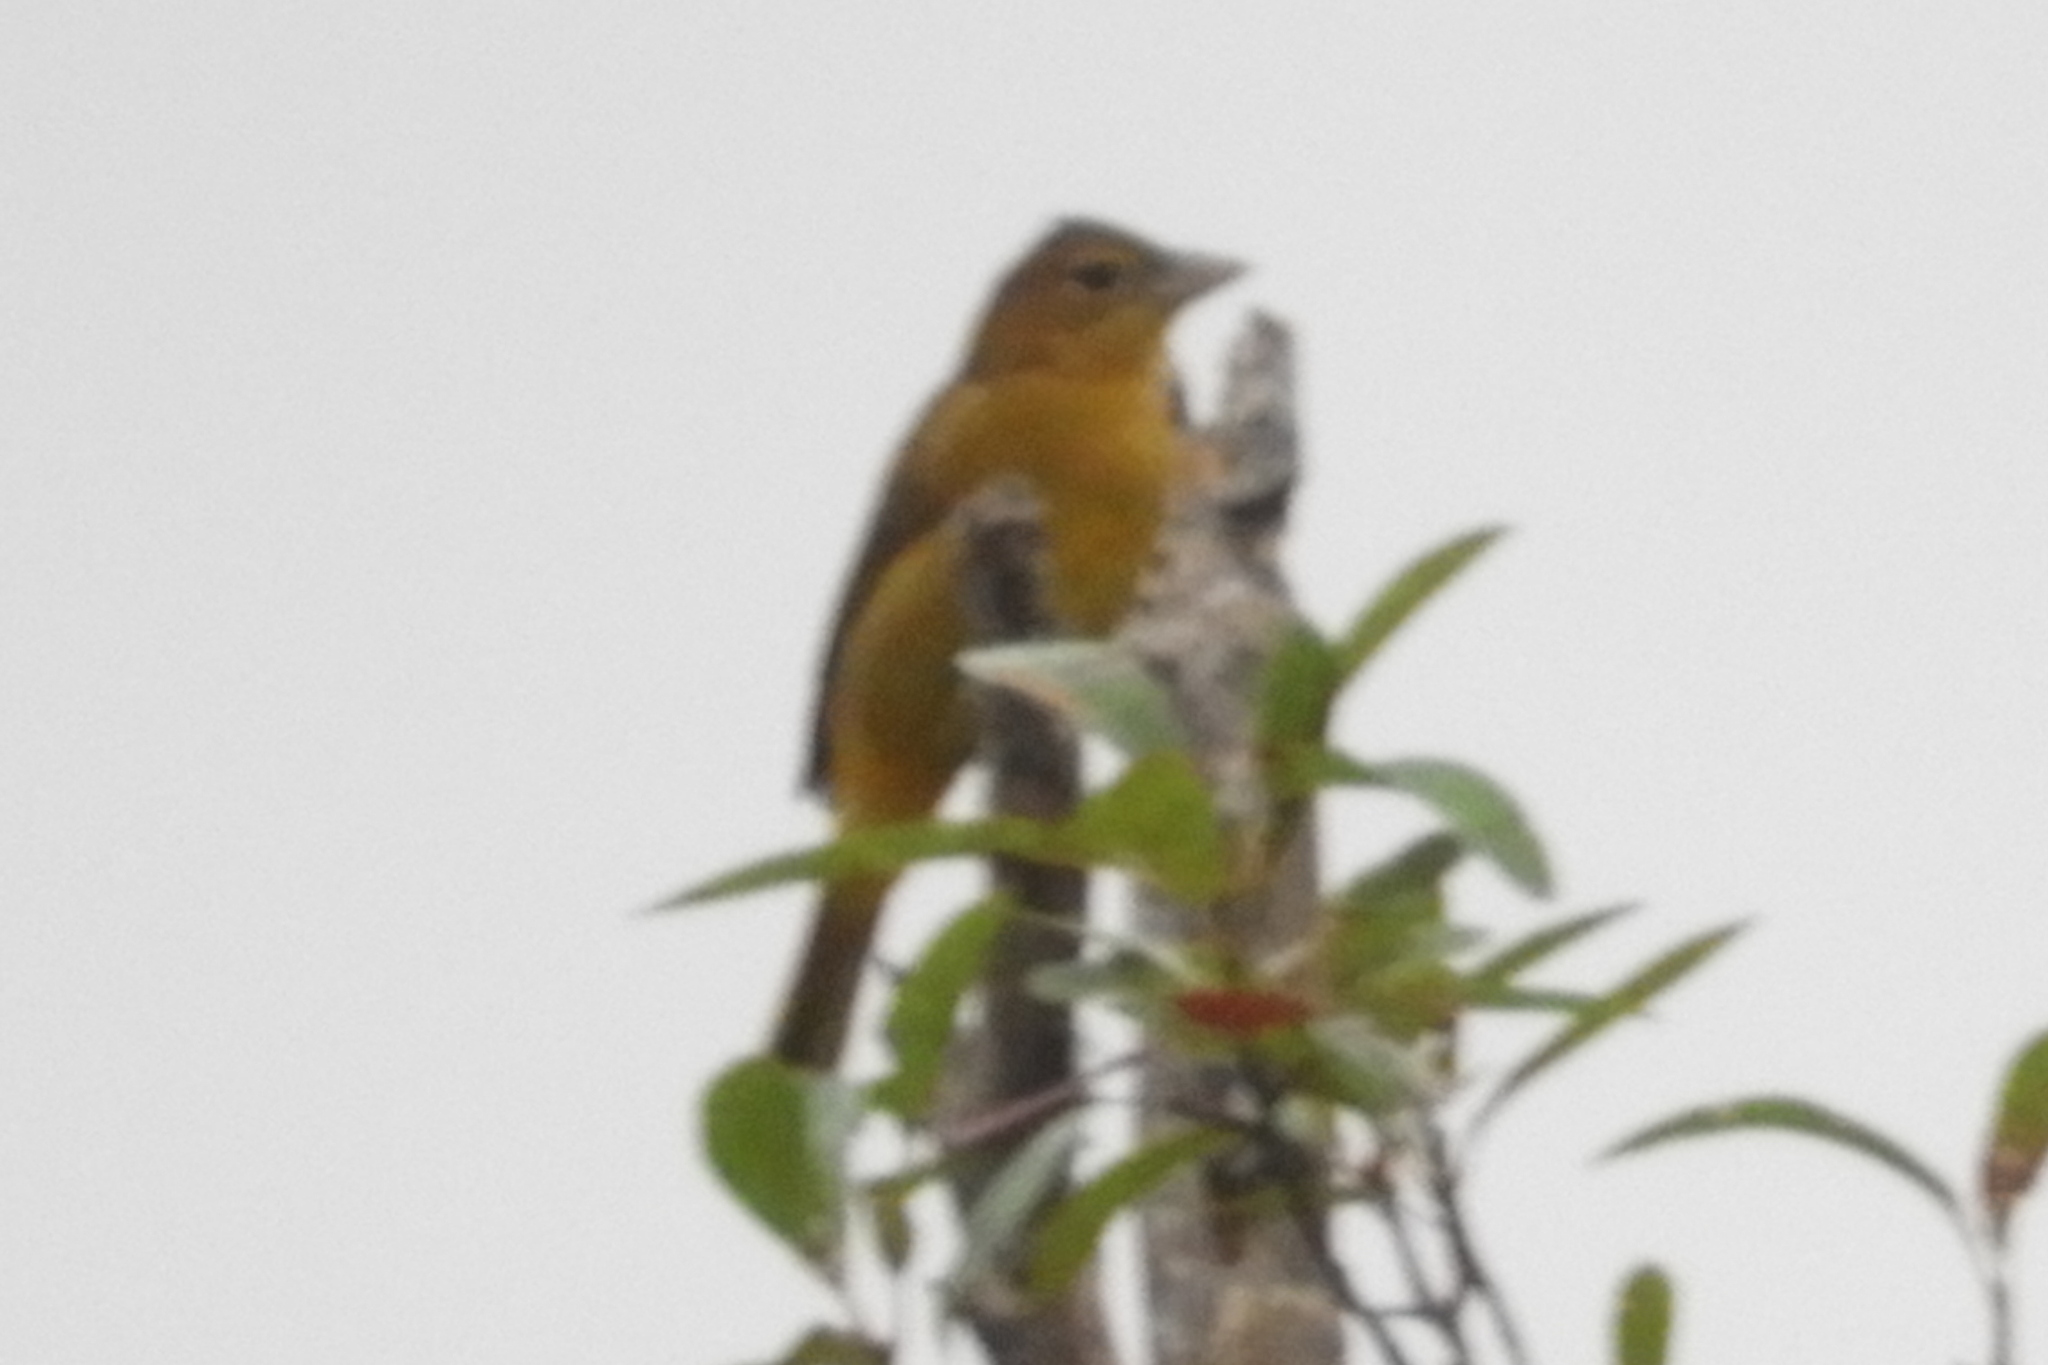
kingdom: Animalia
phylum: Chordata
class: Aves
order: Passeriformes
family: Cardinalidae
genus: Piranga
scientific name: Piranga rubra
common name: Summer tanager
